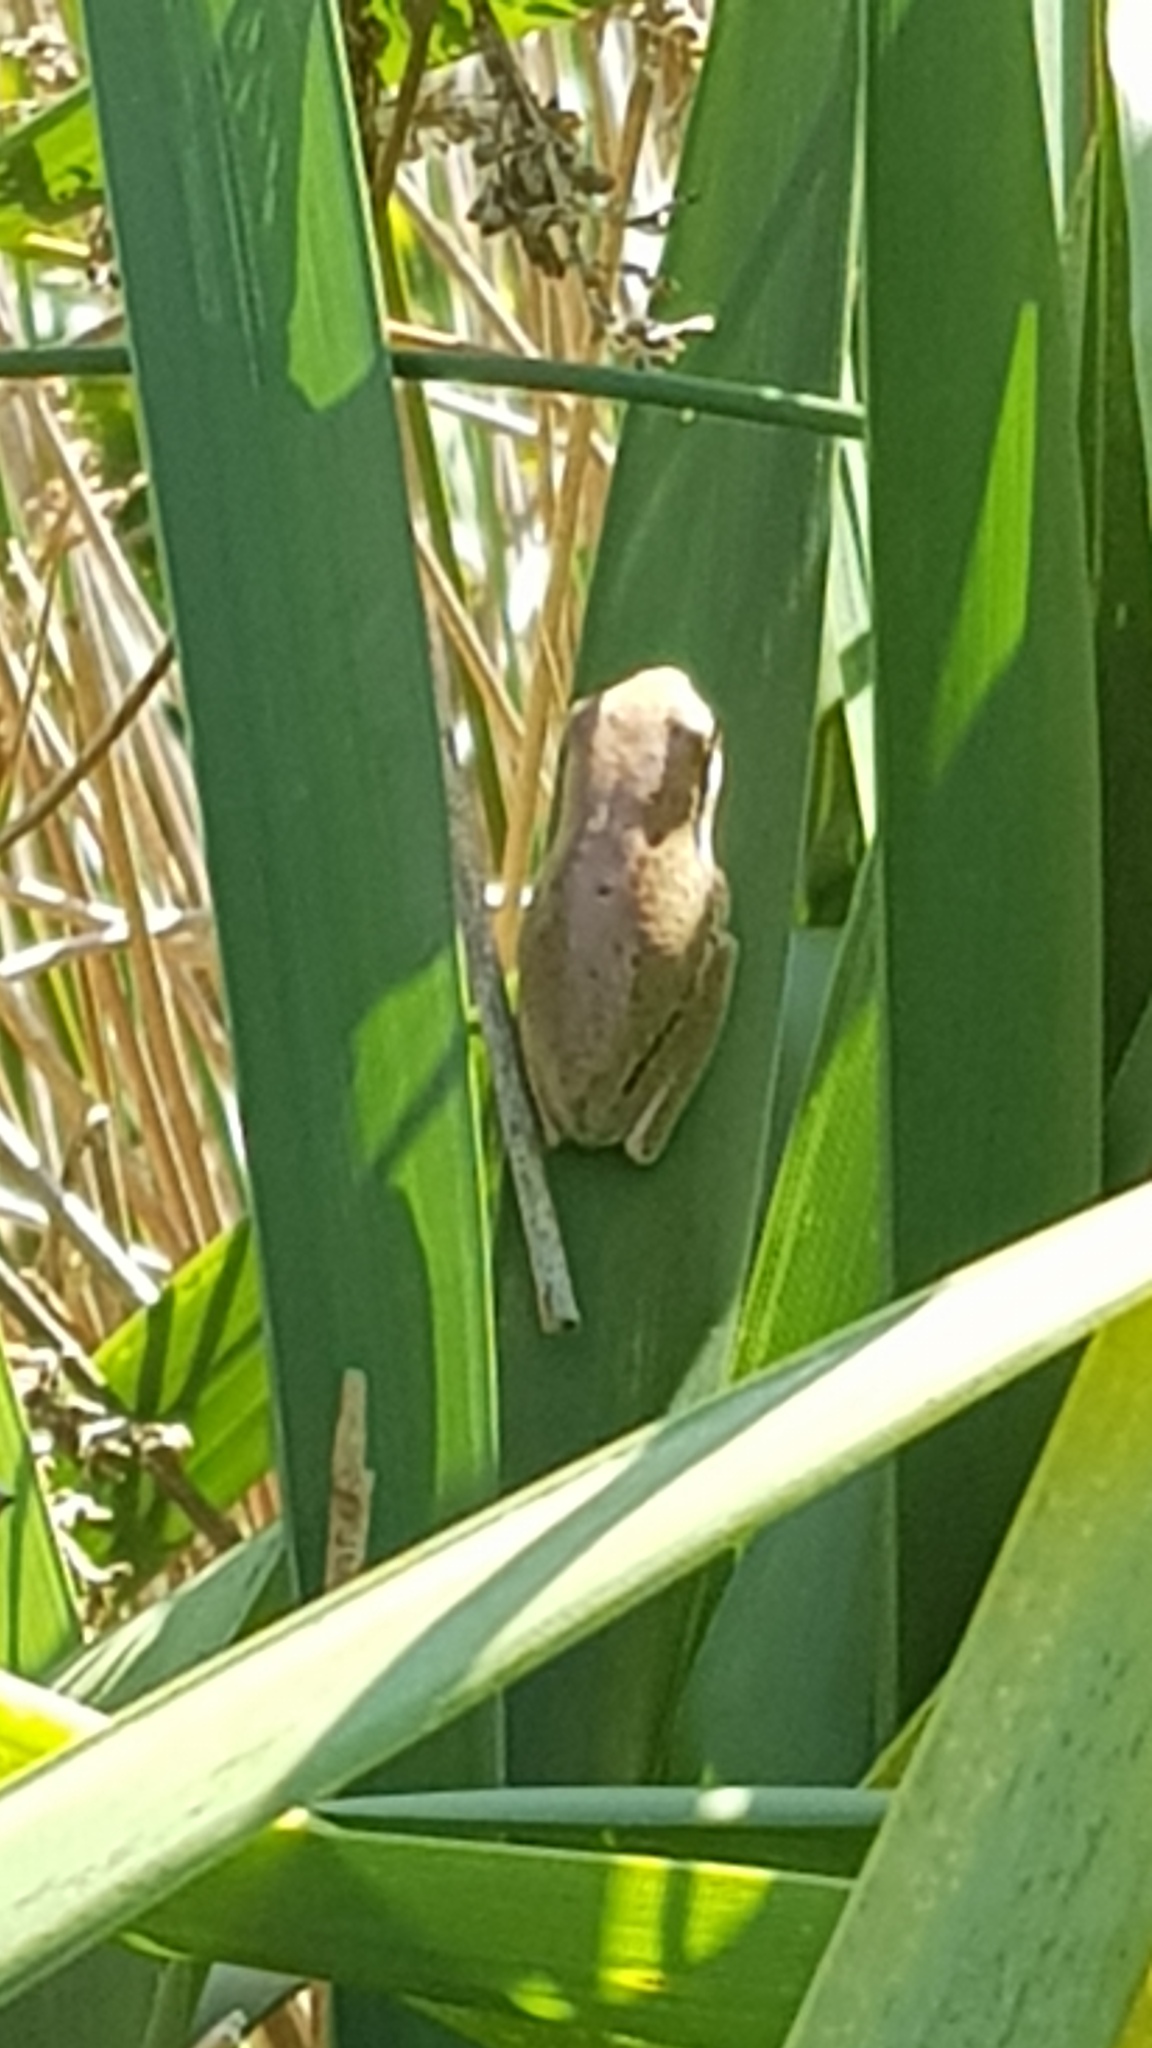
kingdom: Animalia
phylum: Chordata
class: Amphibia
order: Anura
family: Pelodryadidae
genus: Litoria
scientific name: Litoria fallax
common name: Eastern dwarf treefrog
